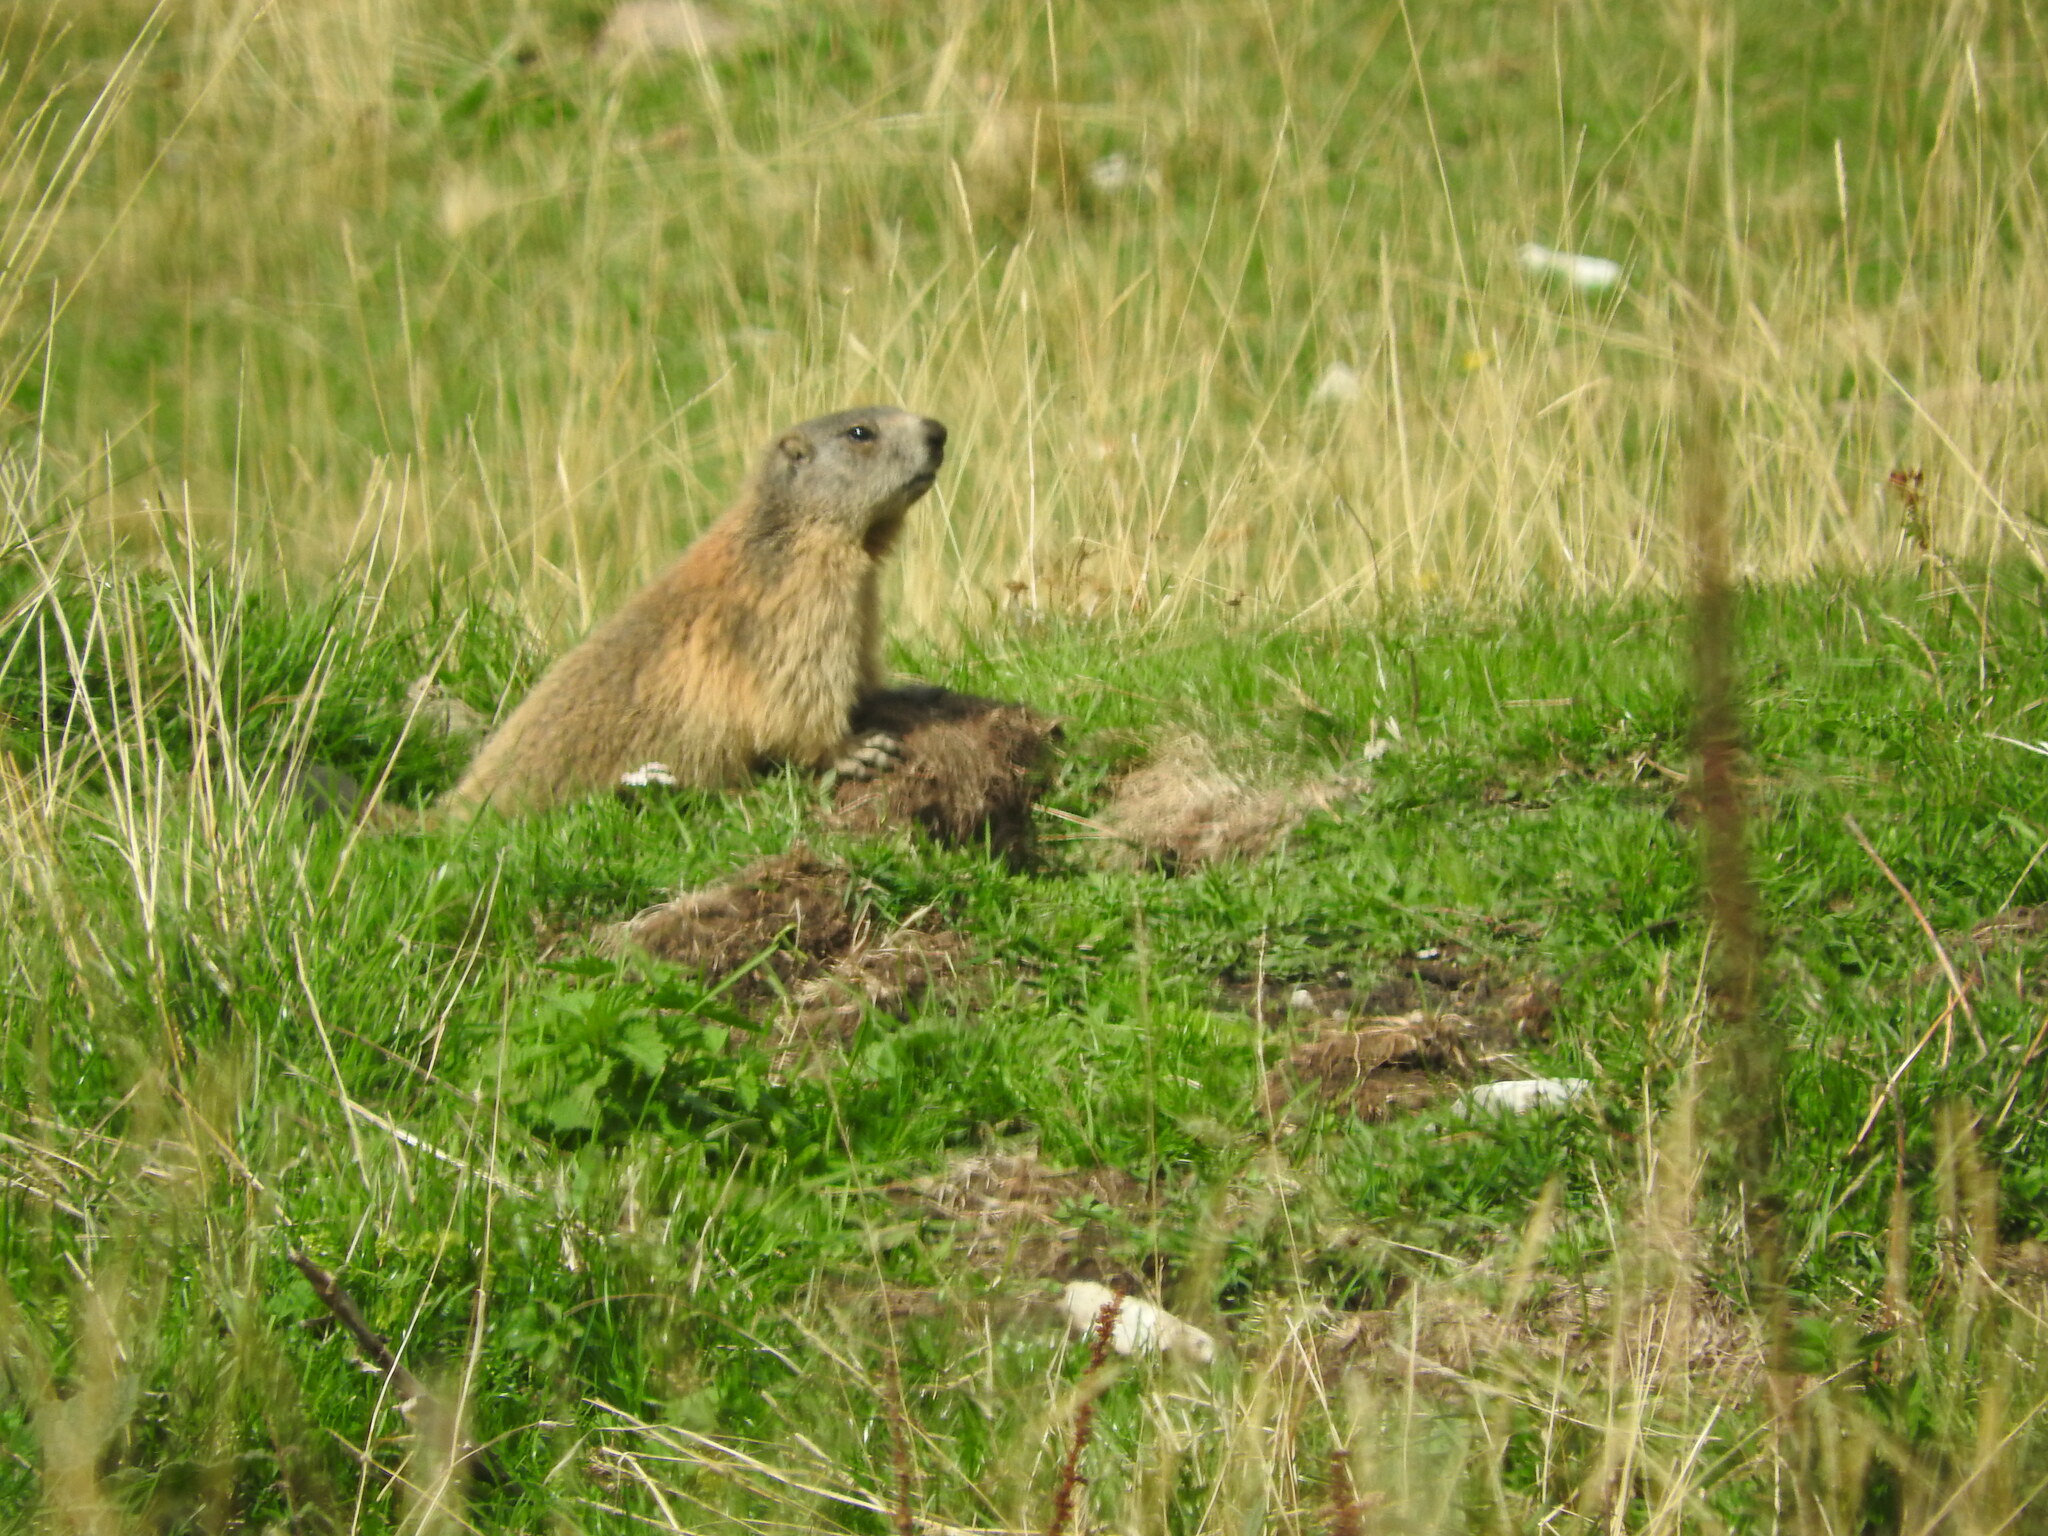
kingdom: Animalia
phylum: Chordata
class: Mammalia
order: Rodentia
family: Sciuridae
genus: Marmota
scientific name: Marmota marmota
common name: Alpine marmot
